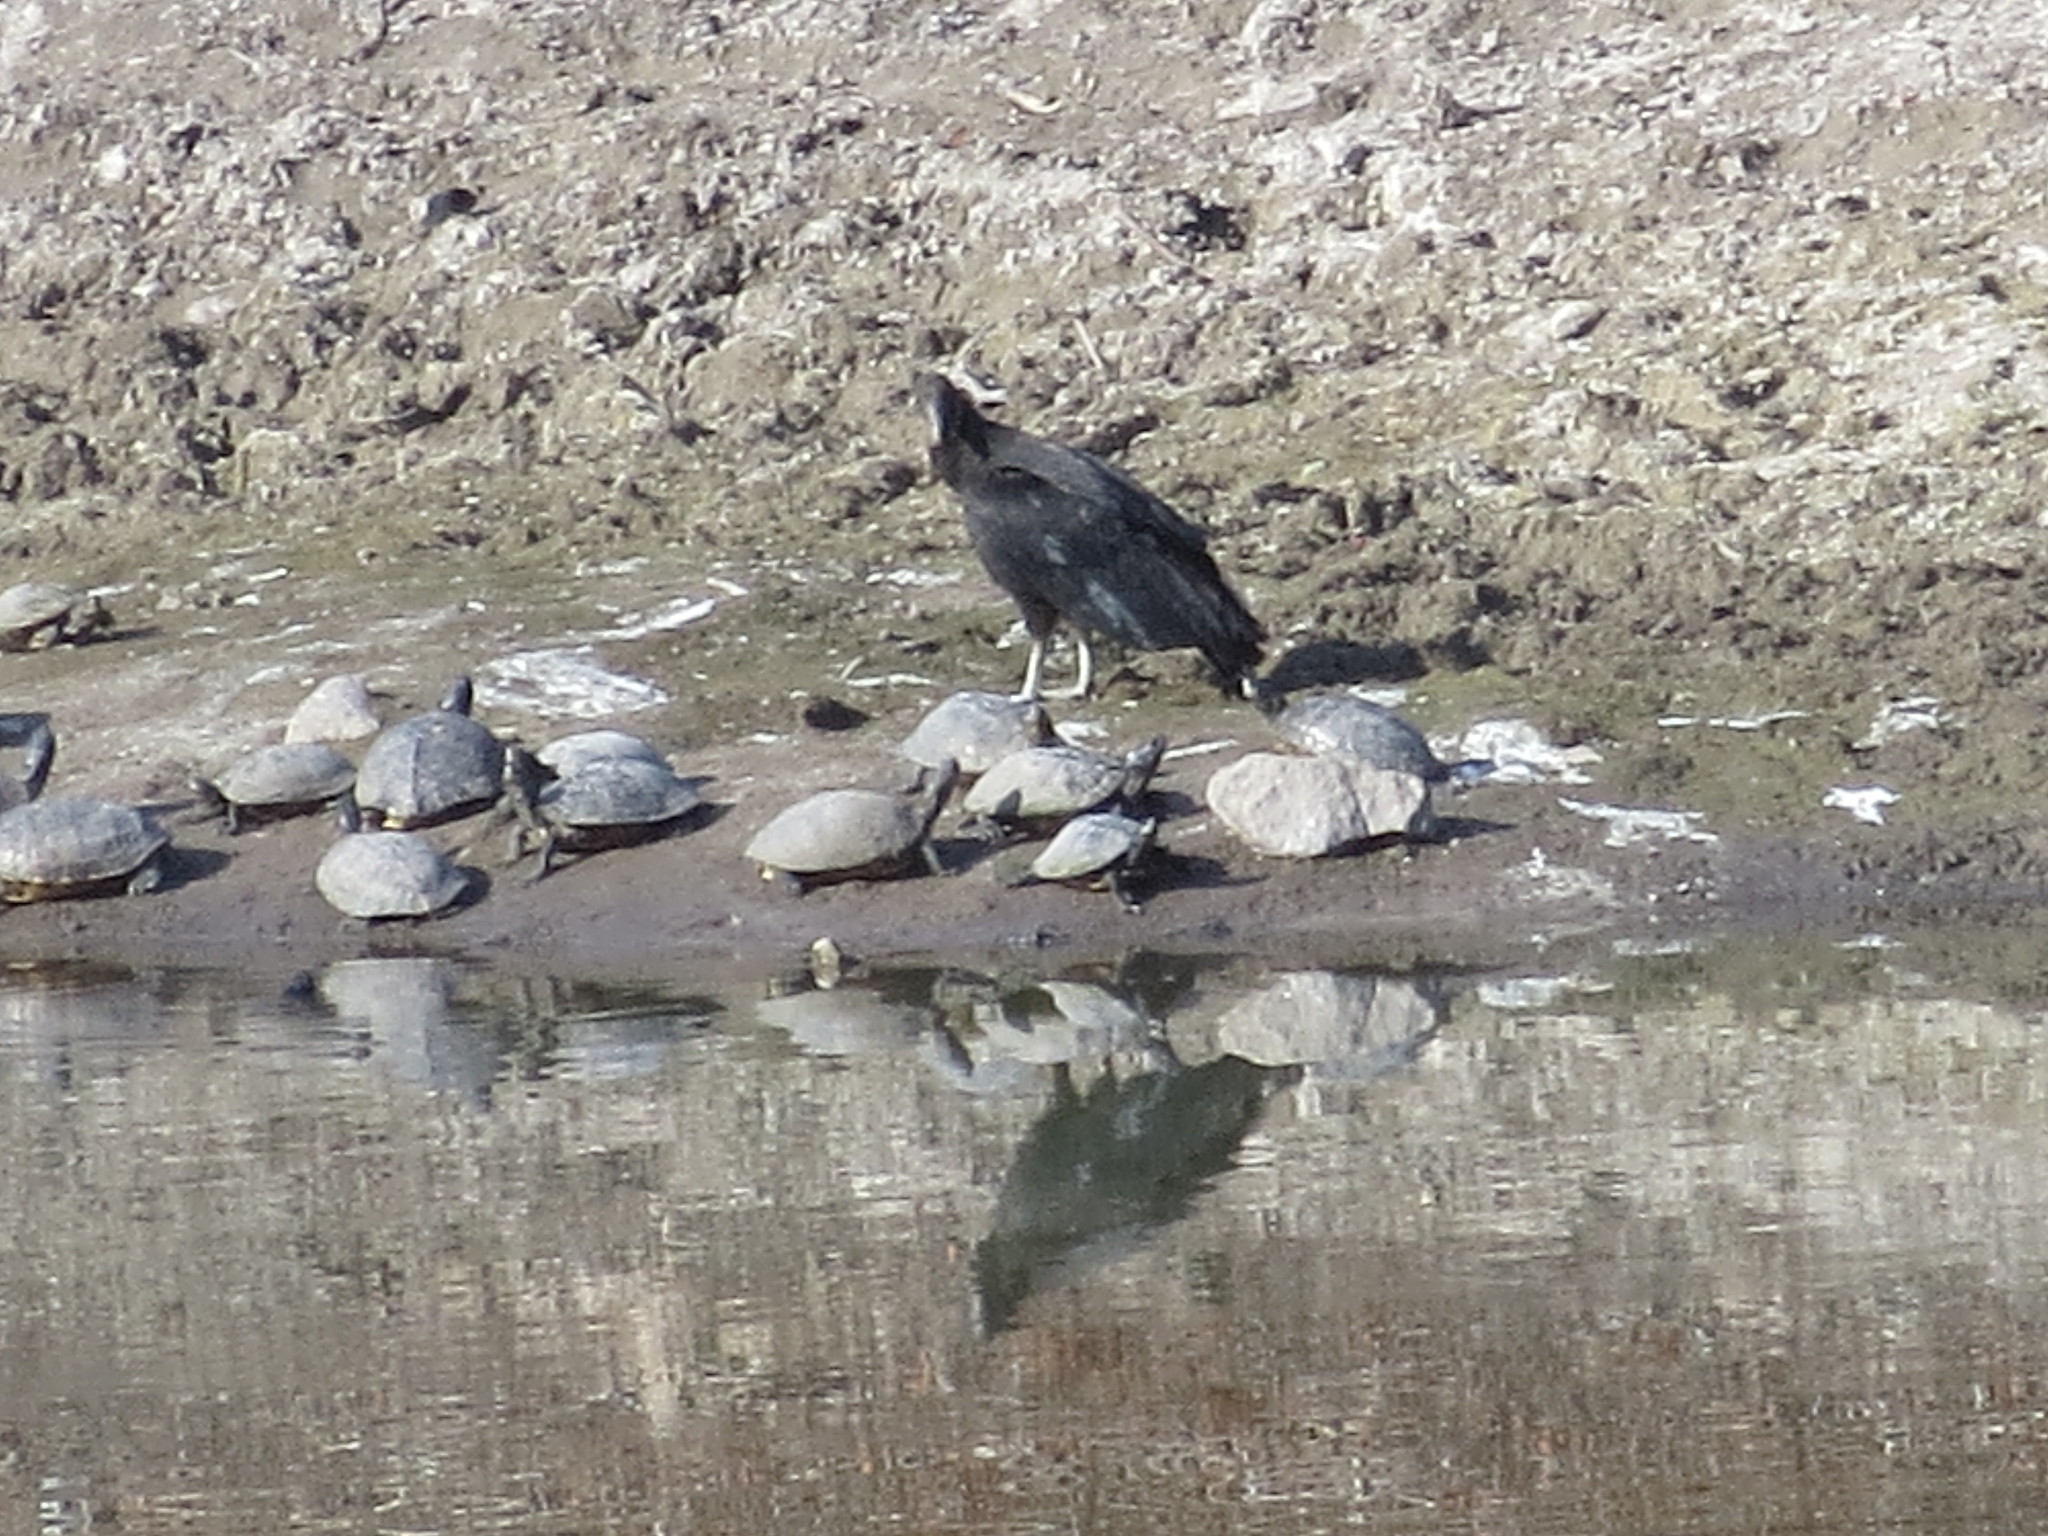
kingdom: Animalia
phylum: Chordata
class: Aves
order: Accipitriformes
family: Cathartidae
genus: Coragyps
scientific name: Coragyps atratus
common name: Black vulture
